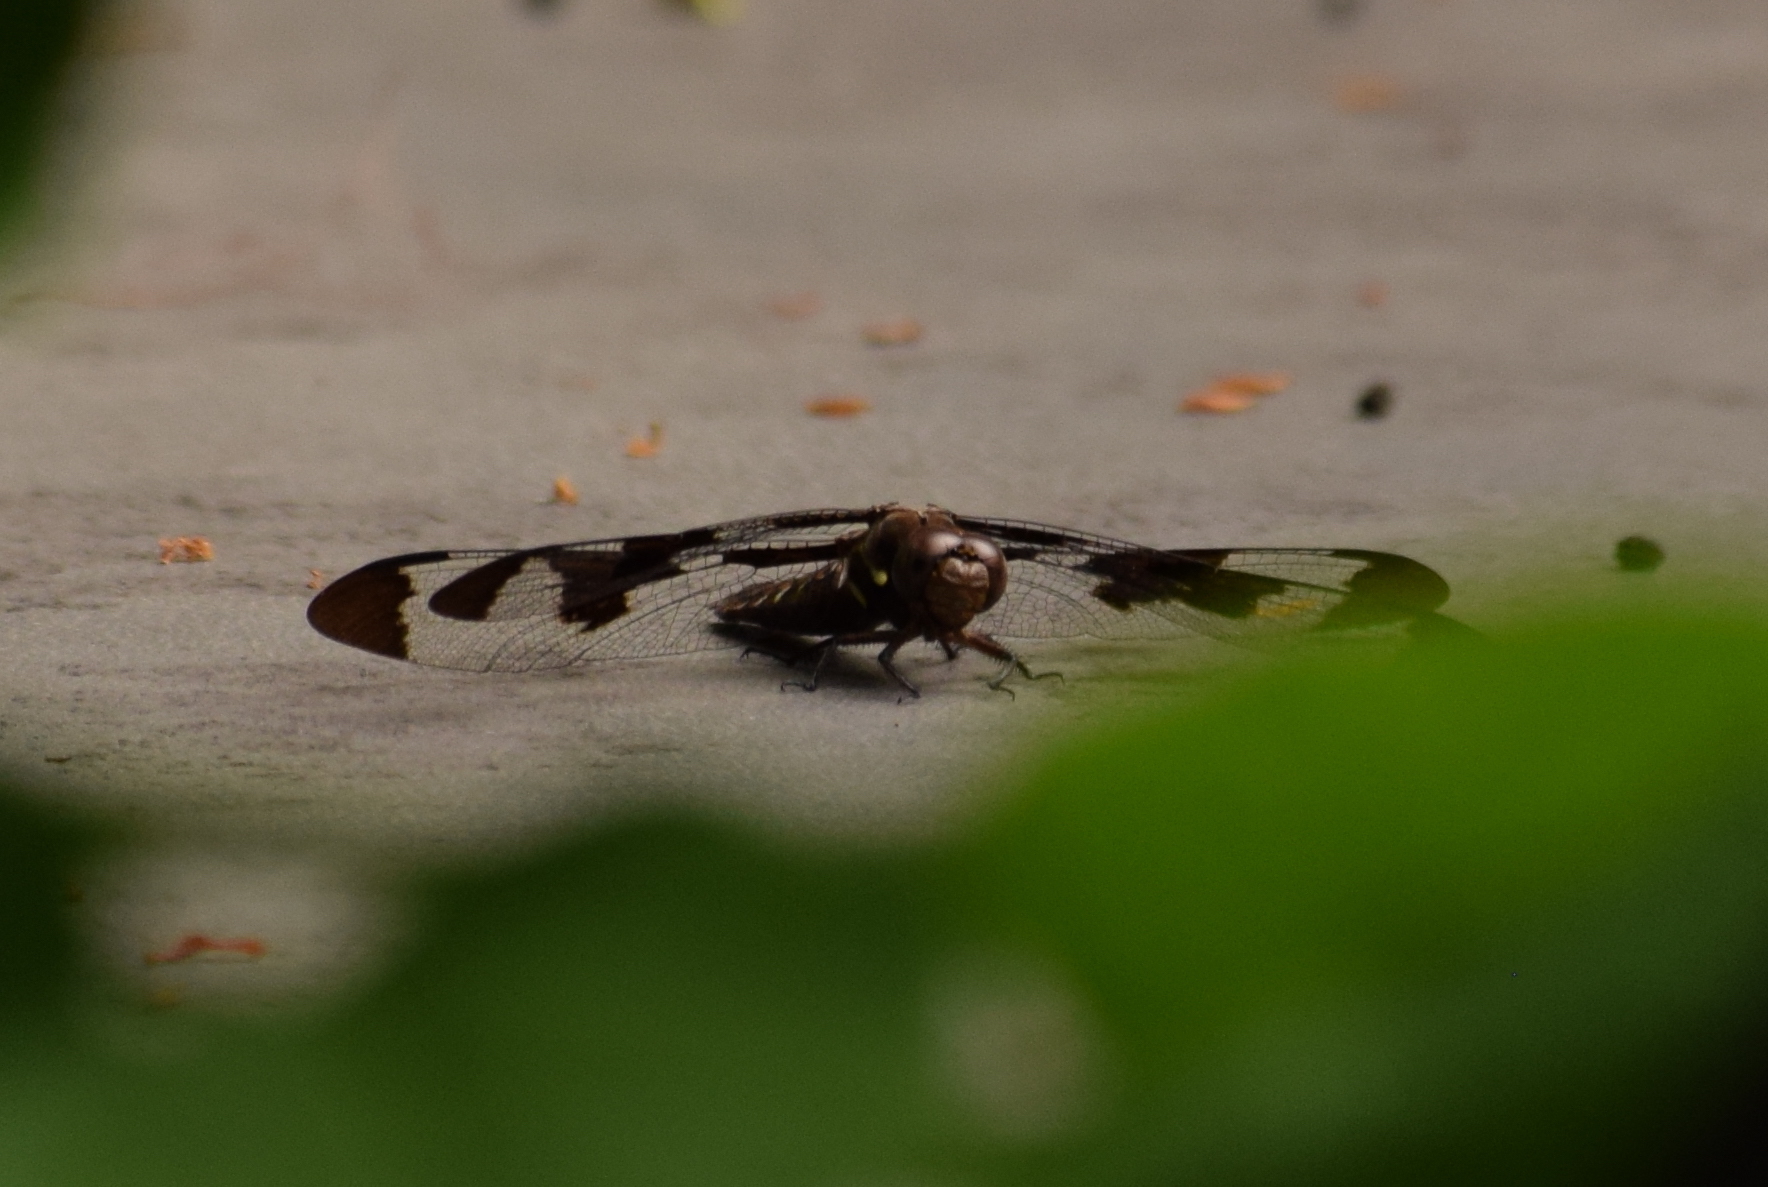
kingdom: Animalia
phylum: Arthropoda
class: Insecta
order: Odonata
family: Libellulidae
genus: Plathemis
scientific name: Plathemis lydia
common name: Common whitetail
